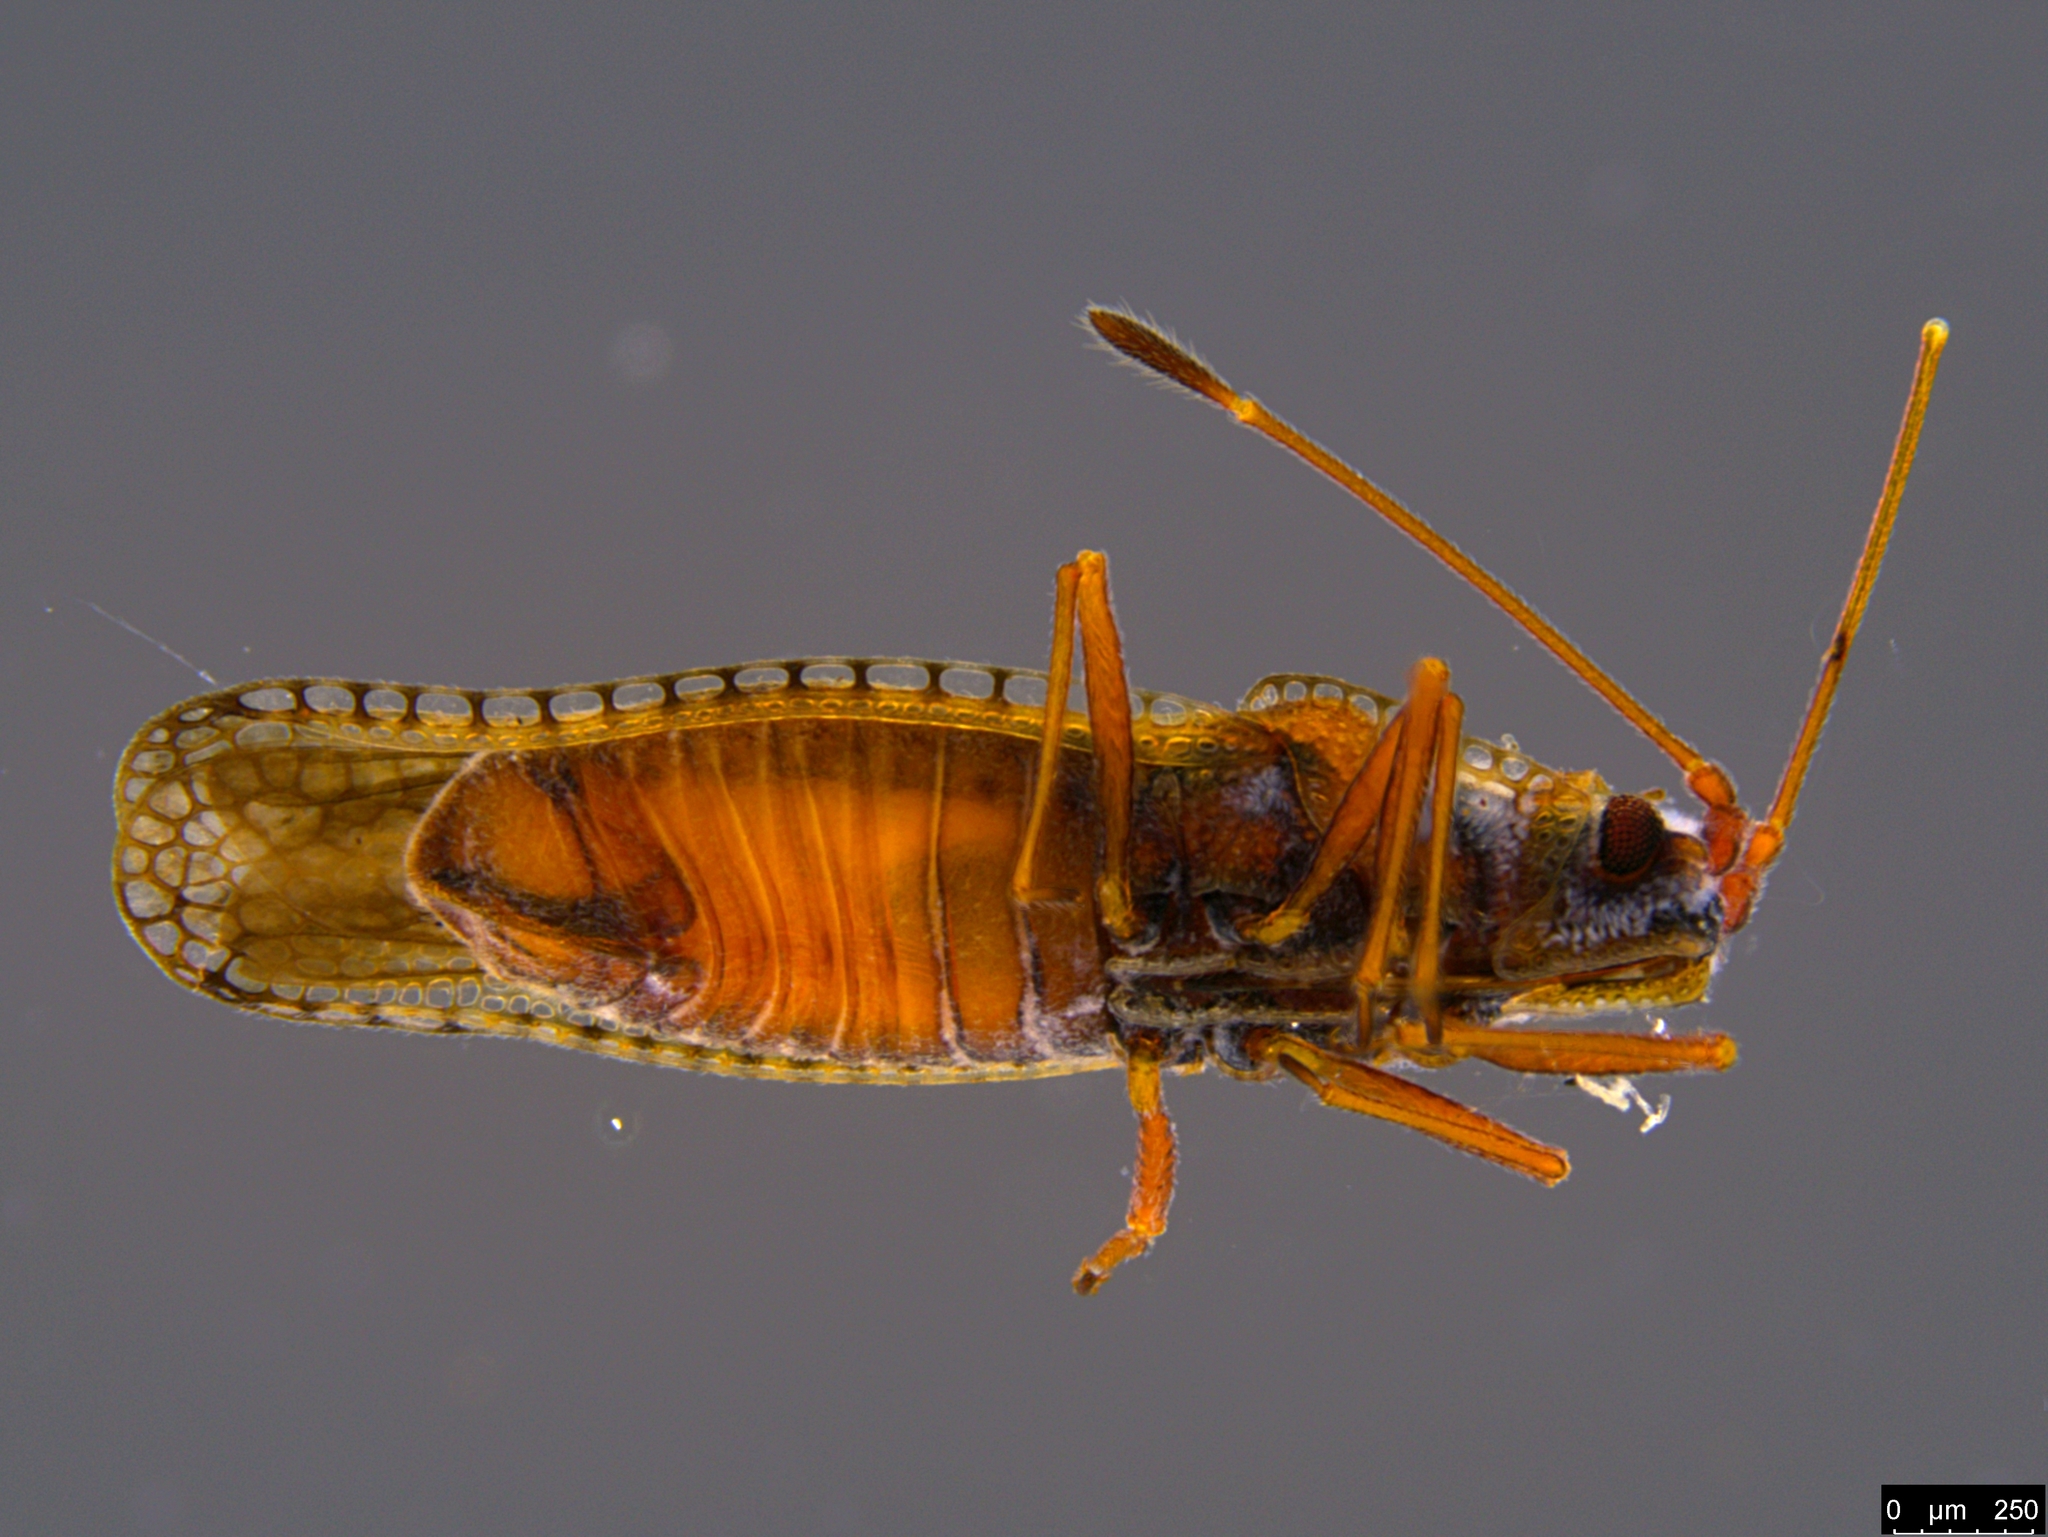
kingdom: Animalia
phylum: Arthropoda
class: Insecta
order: Hemiptera
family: Tingidae
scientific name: Tingidae
